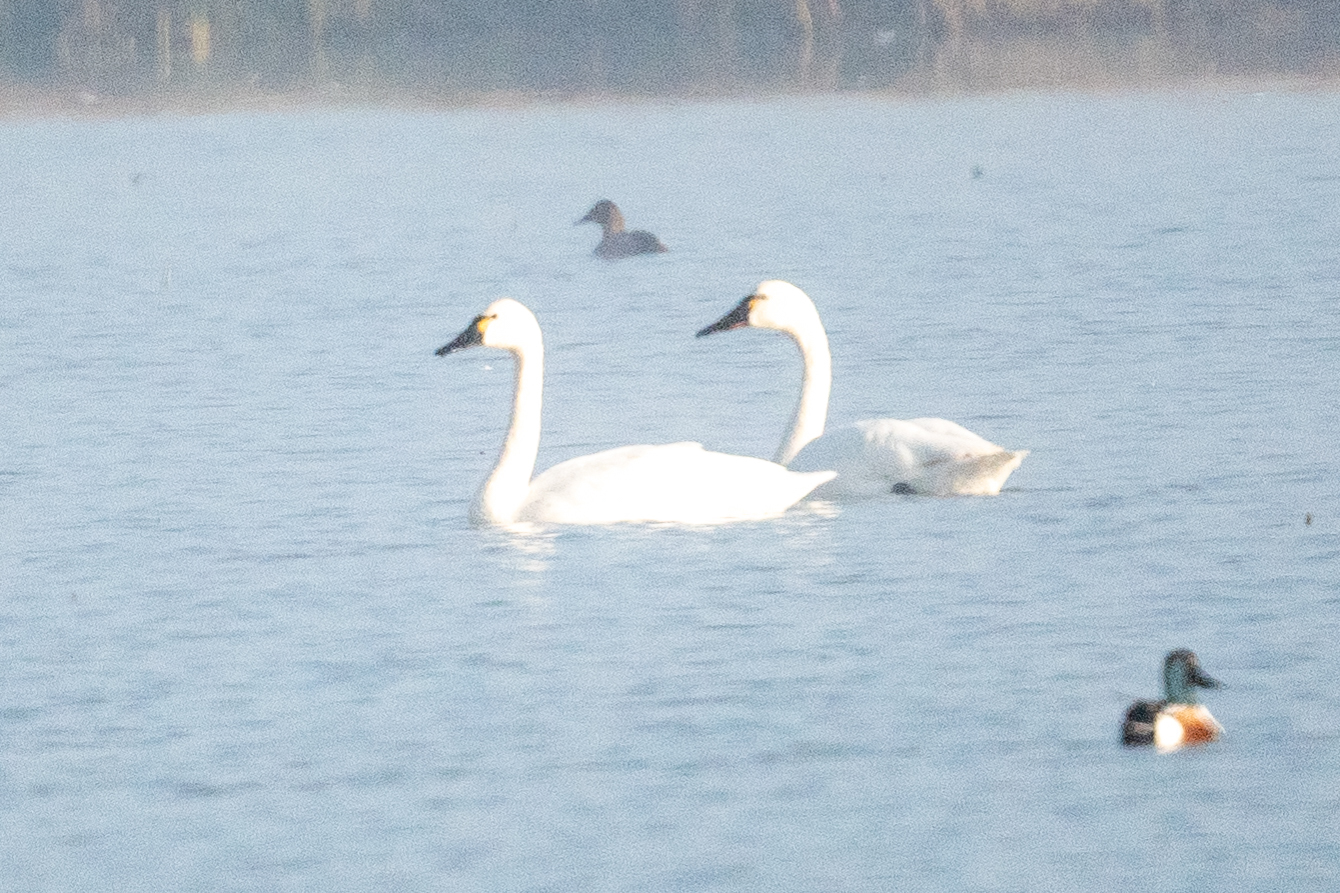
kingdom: Animalia
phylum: Chordata
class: Aves
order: Anseriformes
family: Anatidae
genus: Cygnus
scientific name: Cygnus columbianus
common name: Tundra swan
